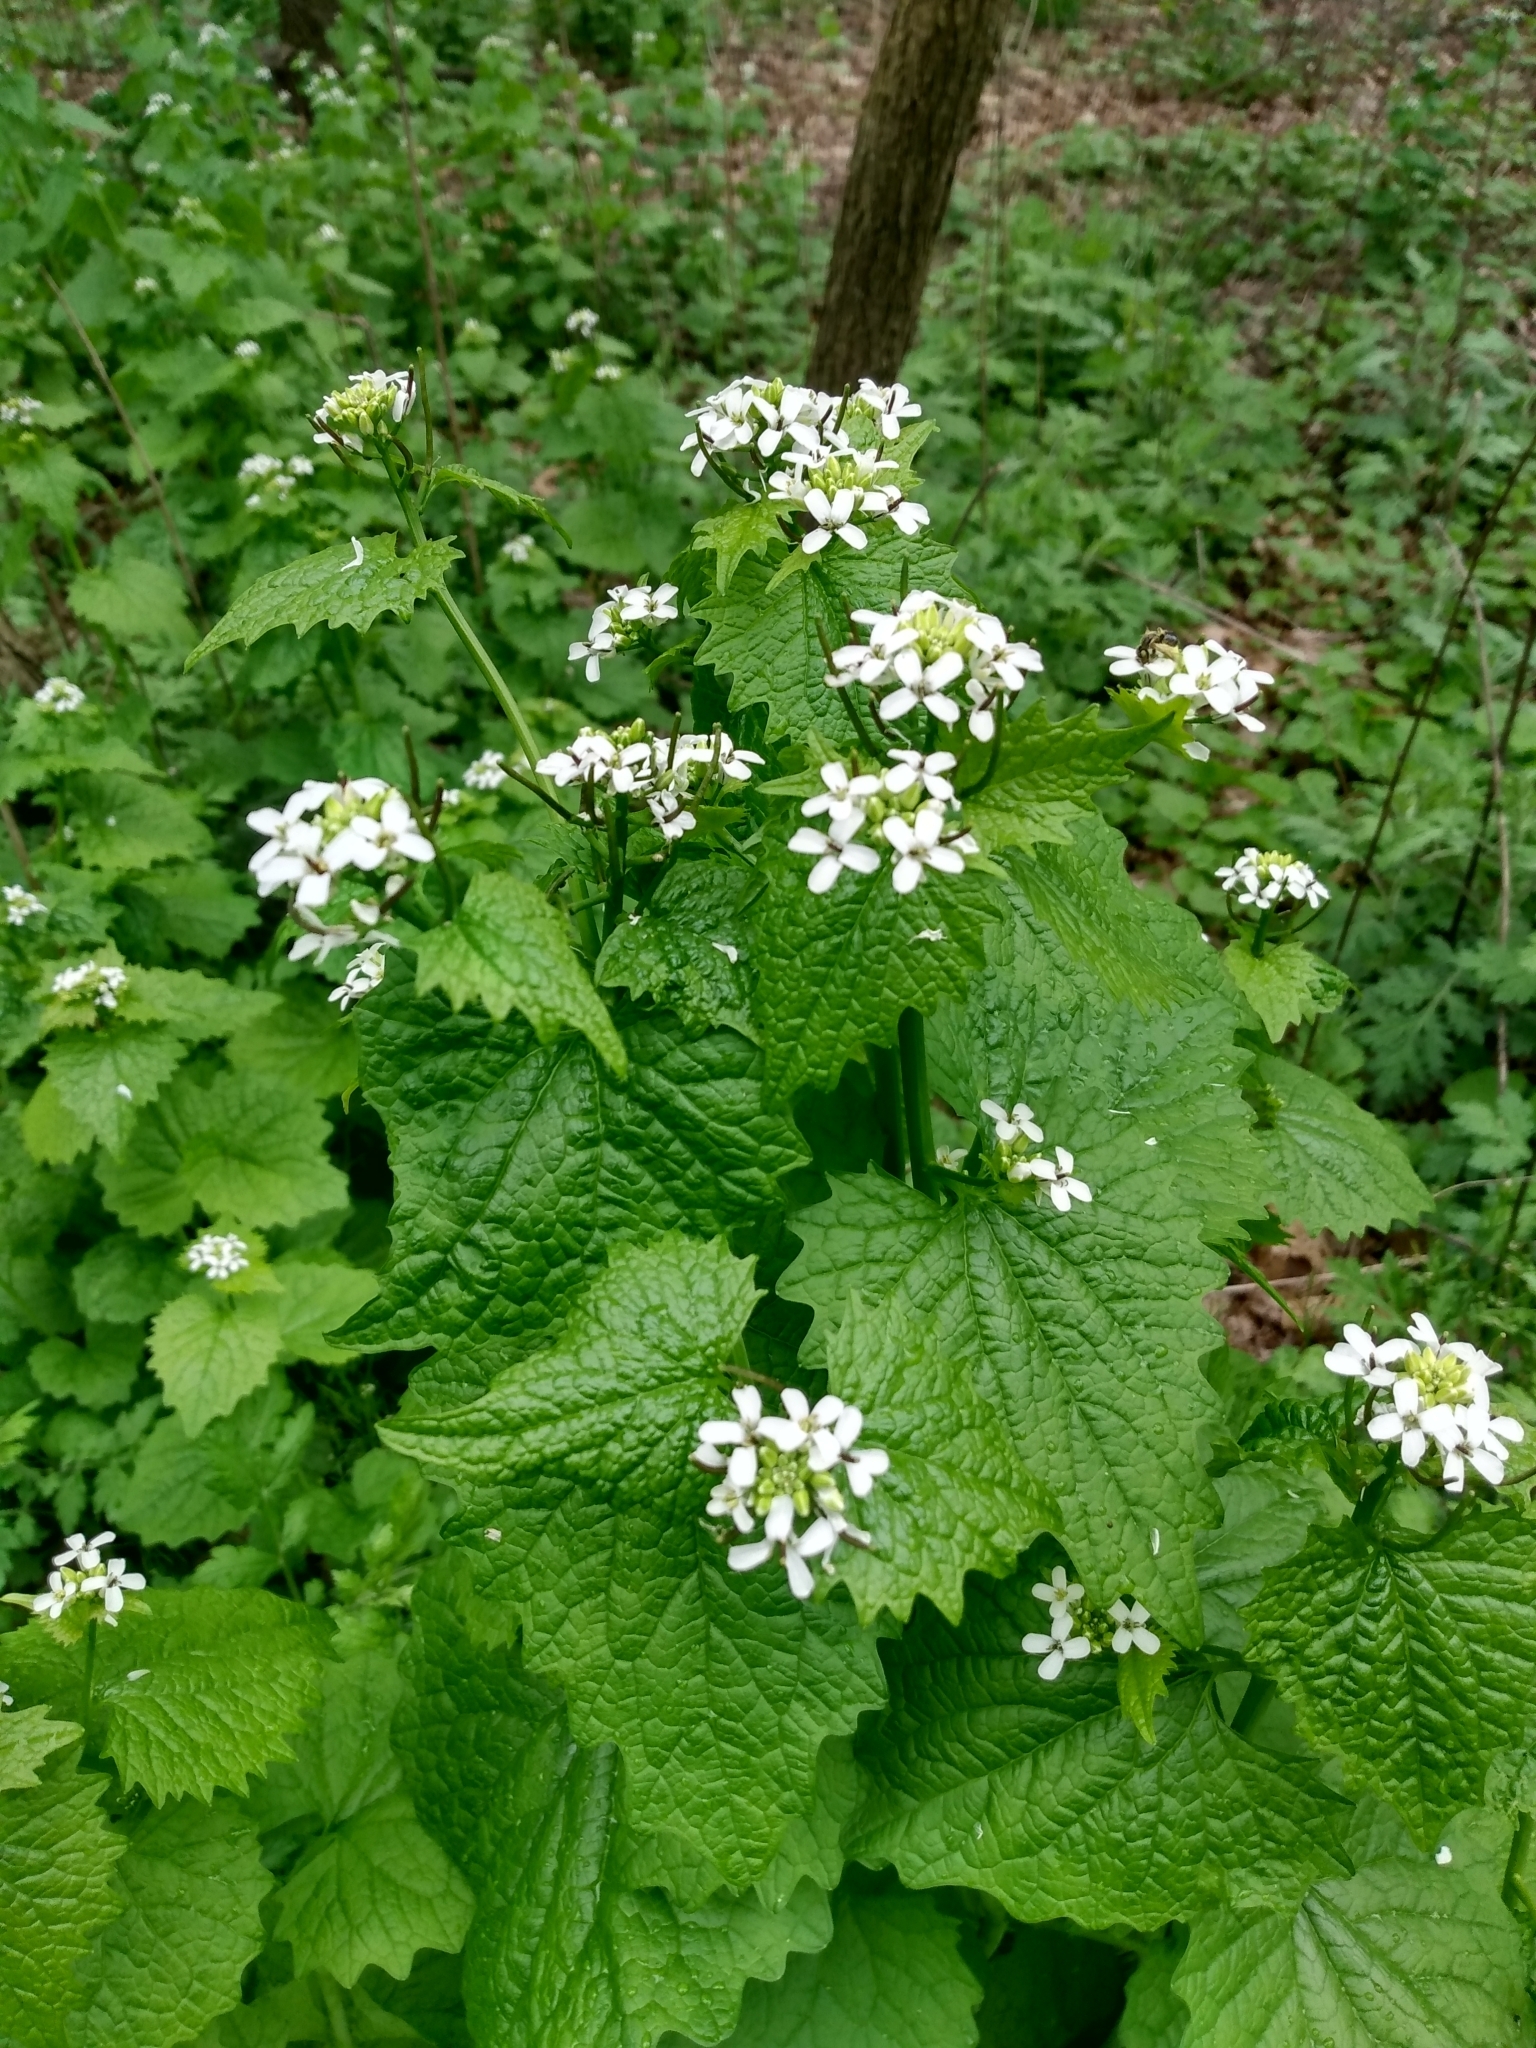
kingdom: Plantae
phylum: Tracheophyta
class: Magnoliopsida
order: Brassicales
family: Brassicaceae
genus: Alliaria
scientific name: Alliaria petiolata
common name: Garlic mustard
